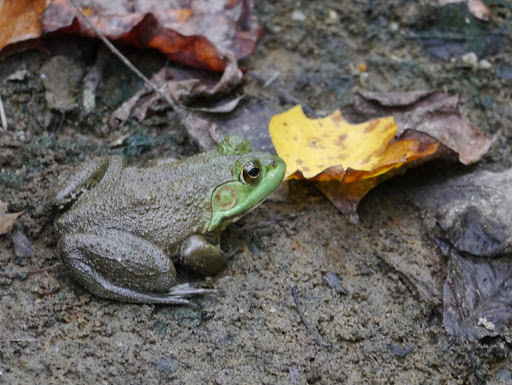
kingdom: Animalia
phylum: Chordata
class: Amphibia
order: Anura
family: Ranidae
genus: Lithobates
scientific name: Lithobates catesbeianus
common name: American bullfrog
